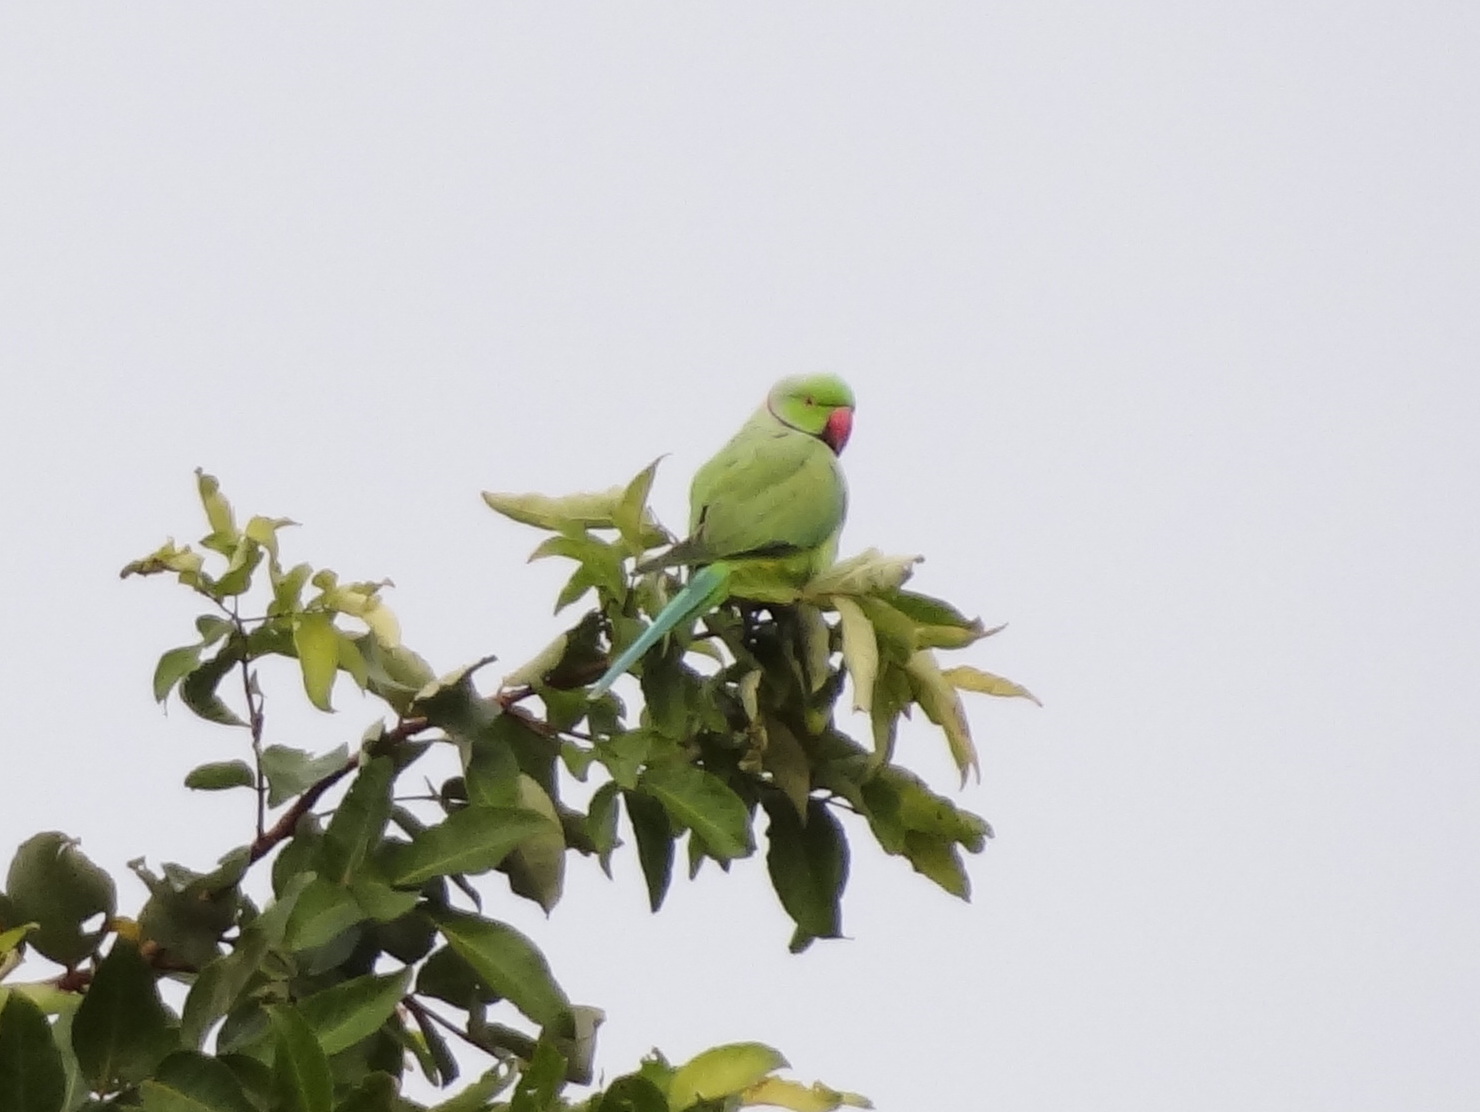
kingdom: Animalia
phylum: Chordata
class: Aves
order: Psittaciformes
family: Psittacidae
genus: Psittacula
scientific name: Psittacula krameri
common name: Rose-ringed parakeet
